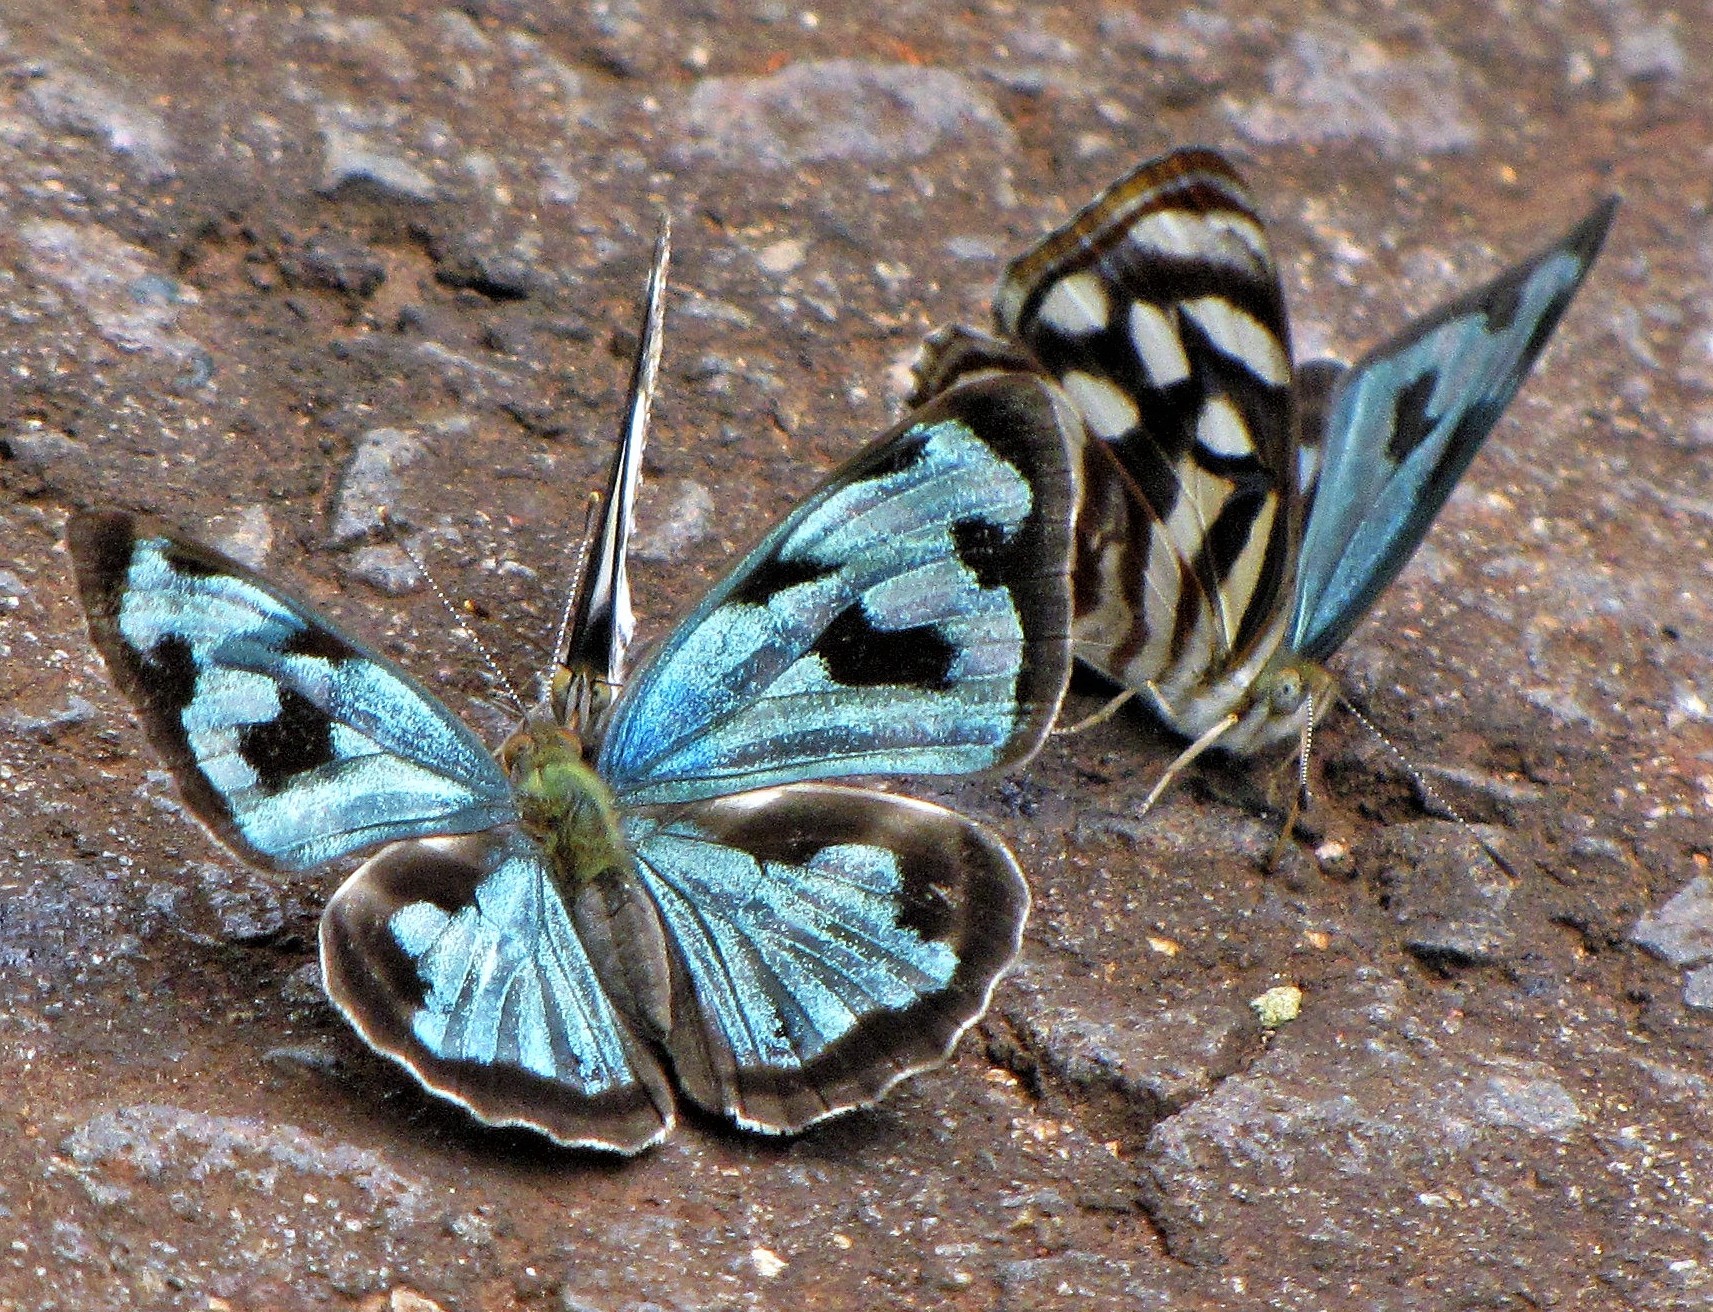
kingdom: Animalia
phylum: Arthropoda
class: Insecta
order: Lepidoptera
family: Nymphalidae
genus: Dynamine
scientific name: Dynamine mylitta
